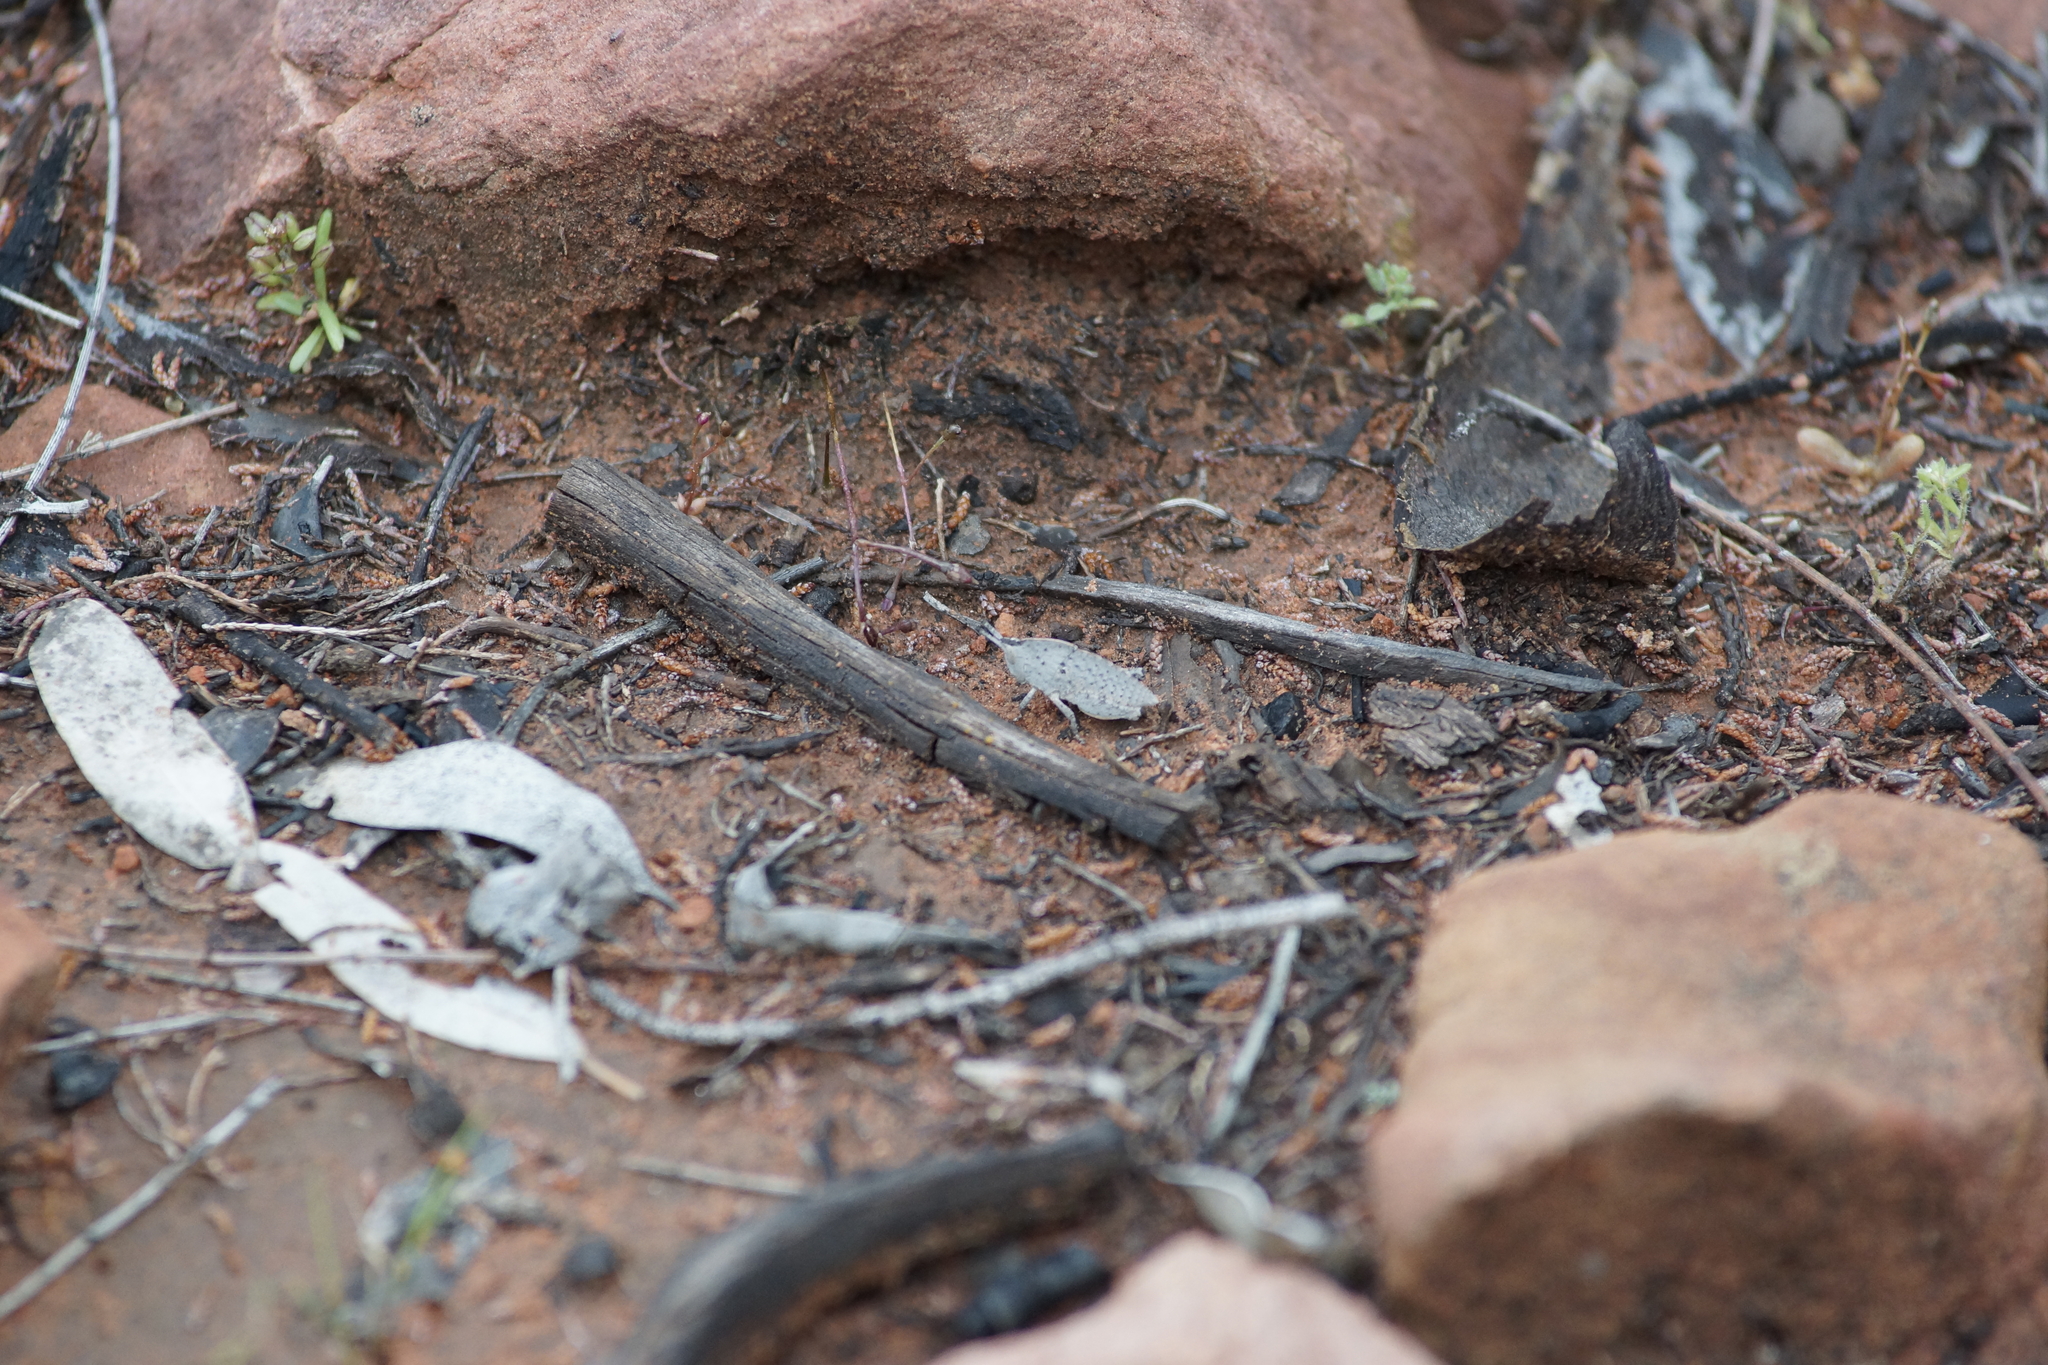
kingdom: Animalia
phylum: Arthropoda
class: Insecta
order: Orthoptera
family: Acrididae
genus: Goniaea
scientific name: Goniaea vocans
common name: Slender gumleaf grasshopper
